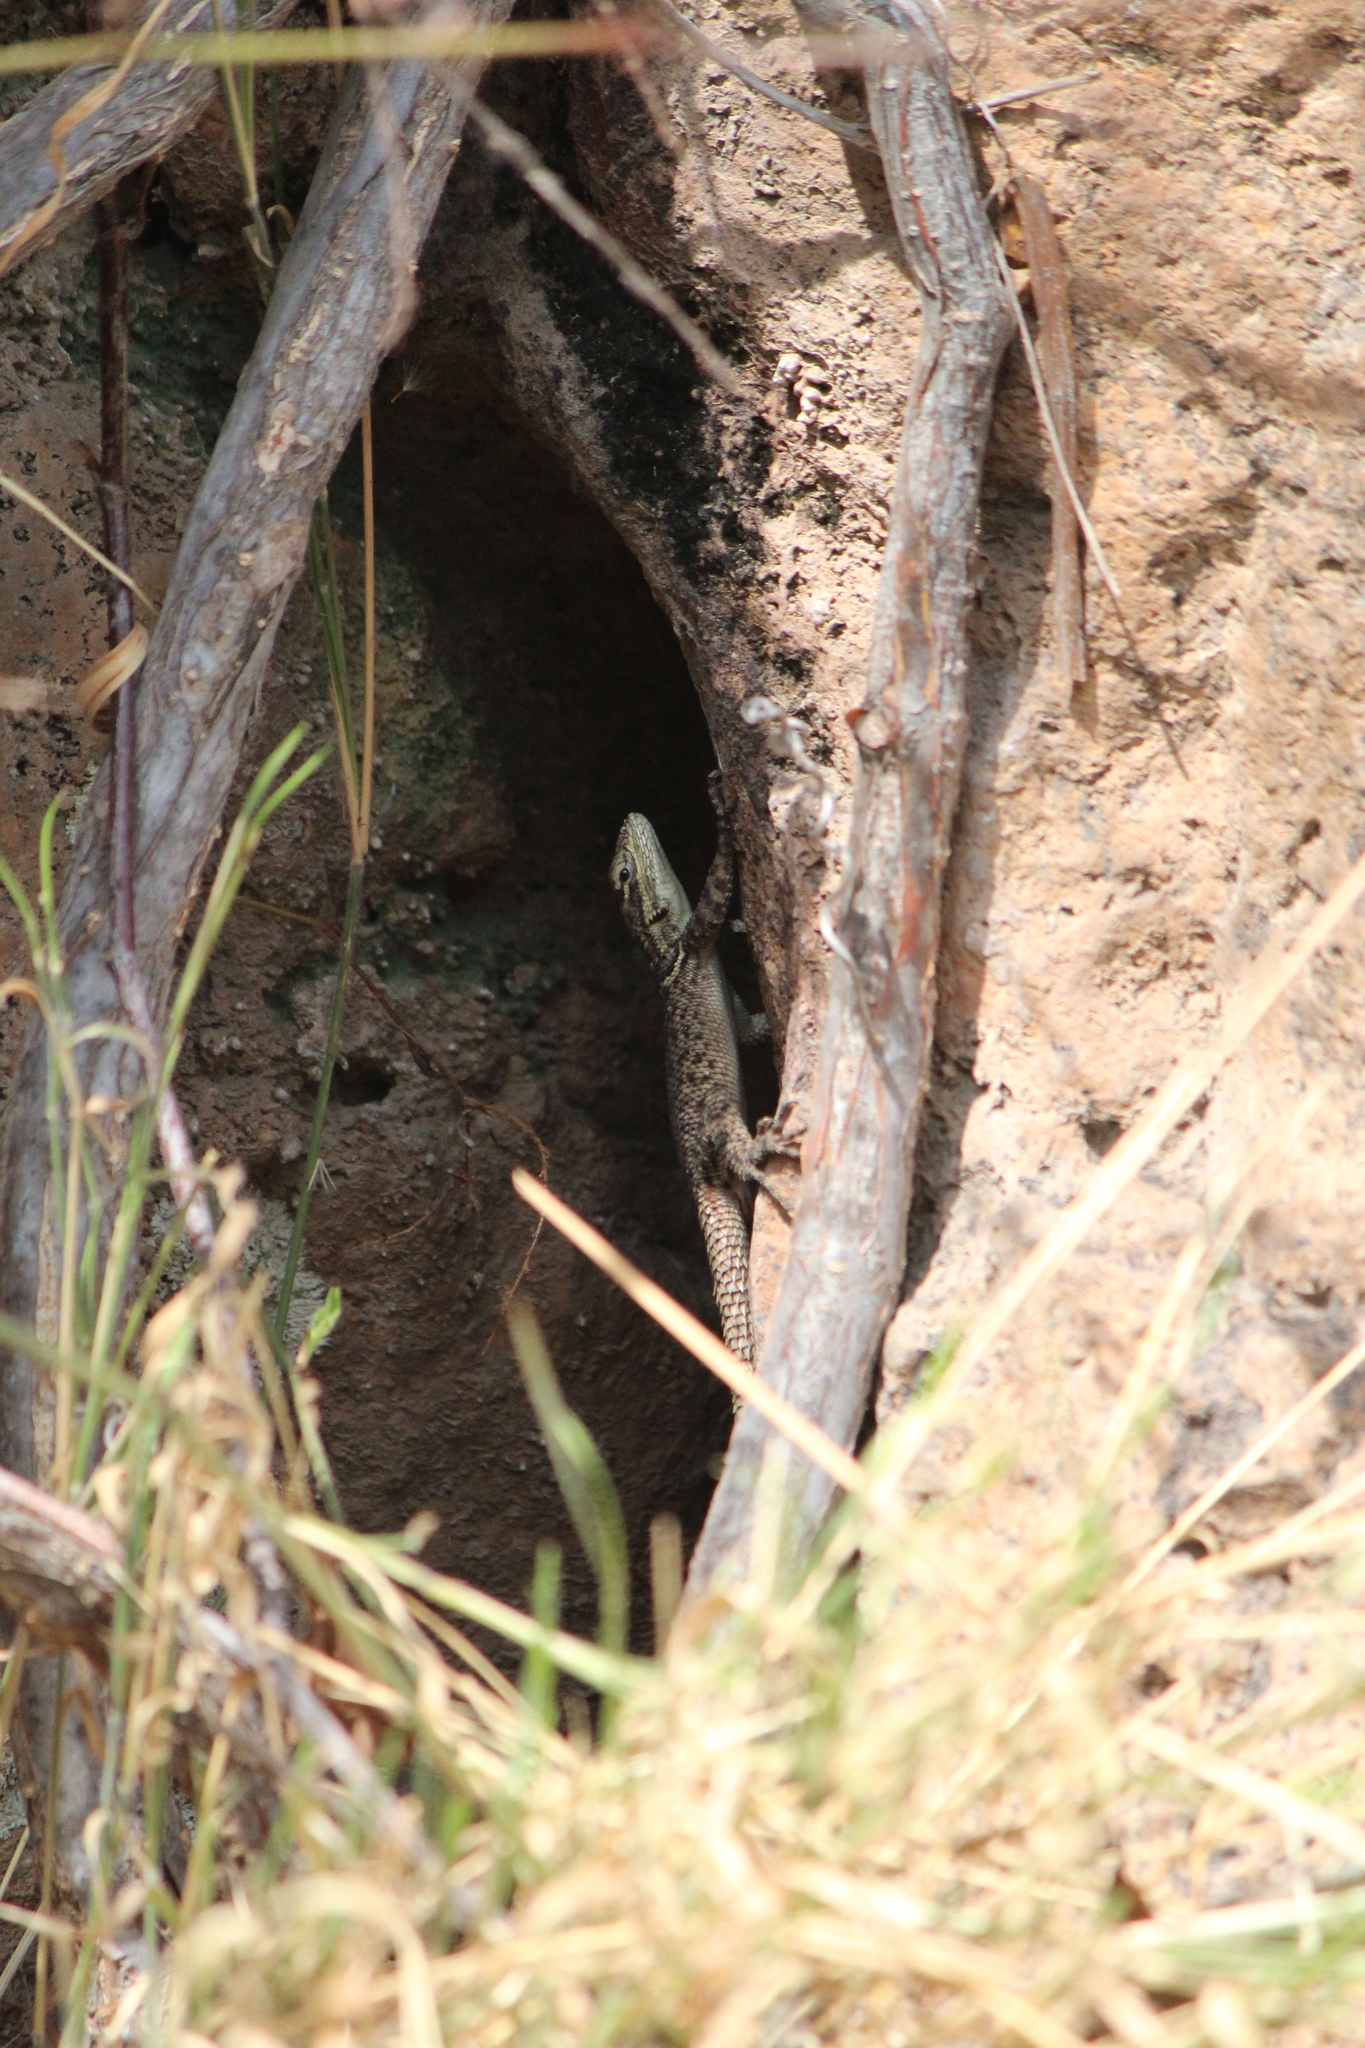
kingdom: Animalia
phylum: Chordata
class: Squamata
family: Phrynosomatidae
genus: Sceloporus
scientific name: Sceloporus minor
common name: Minor lizard
